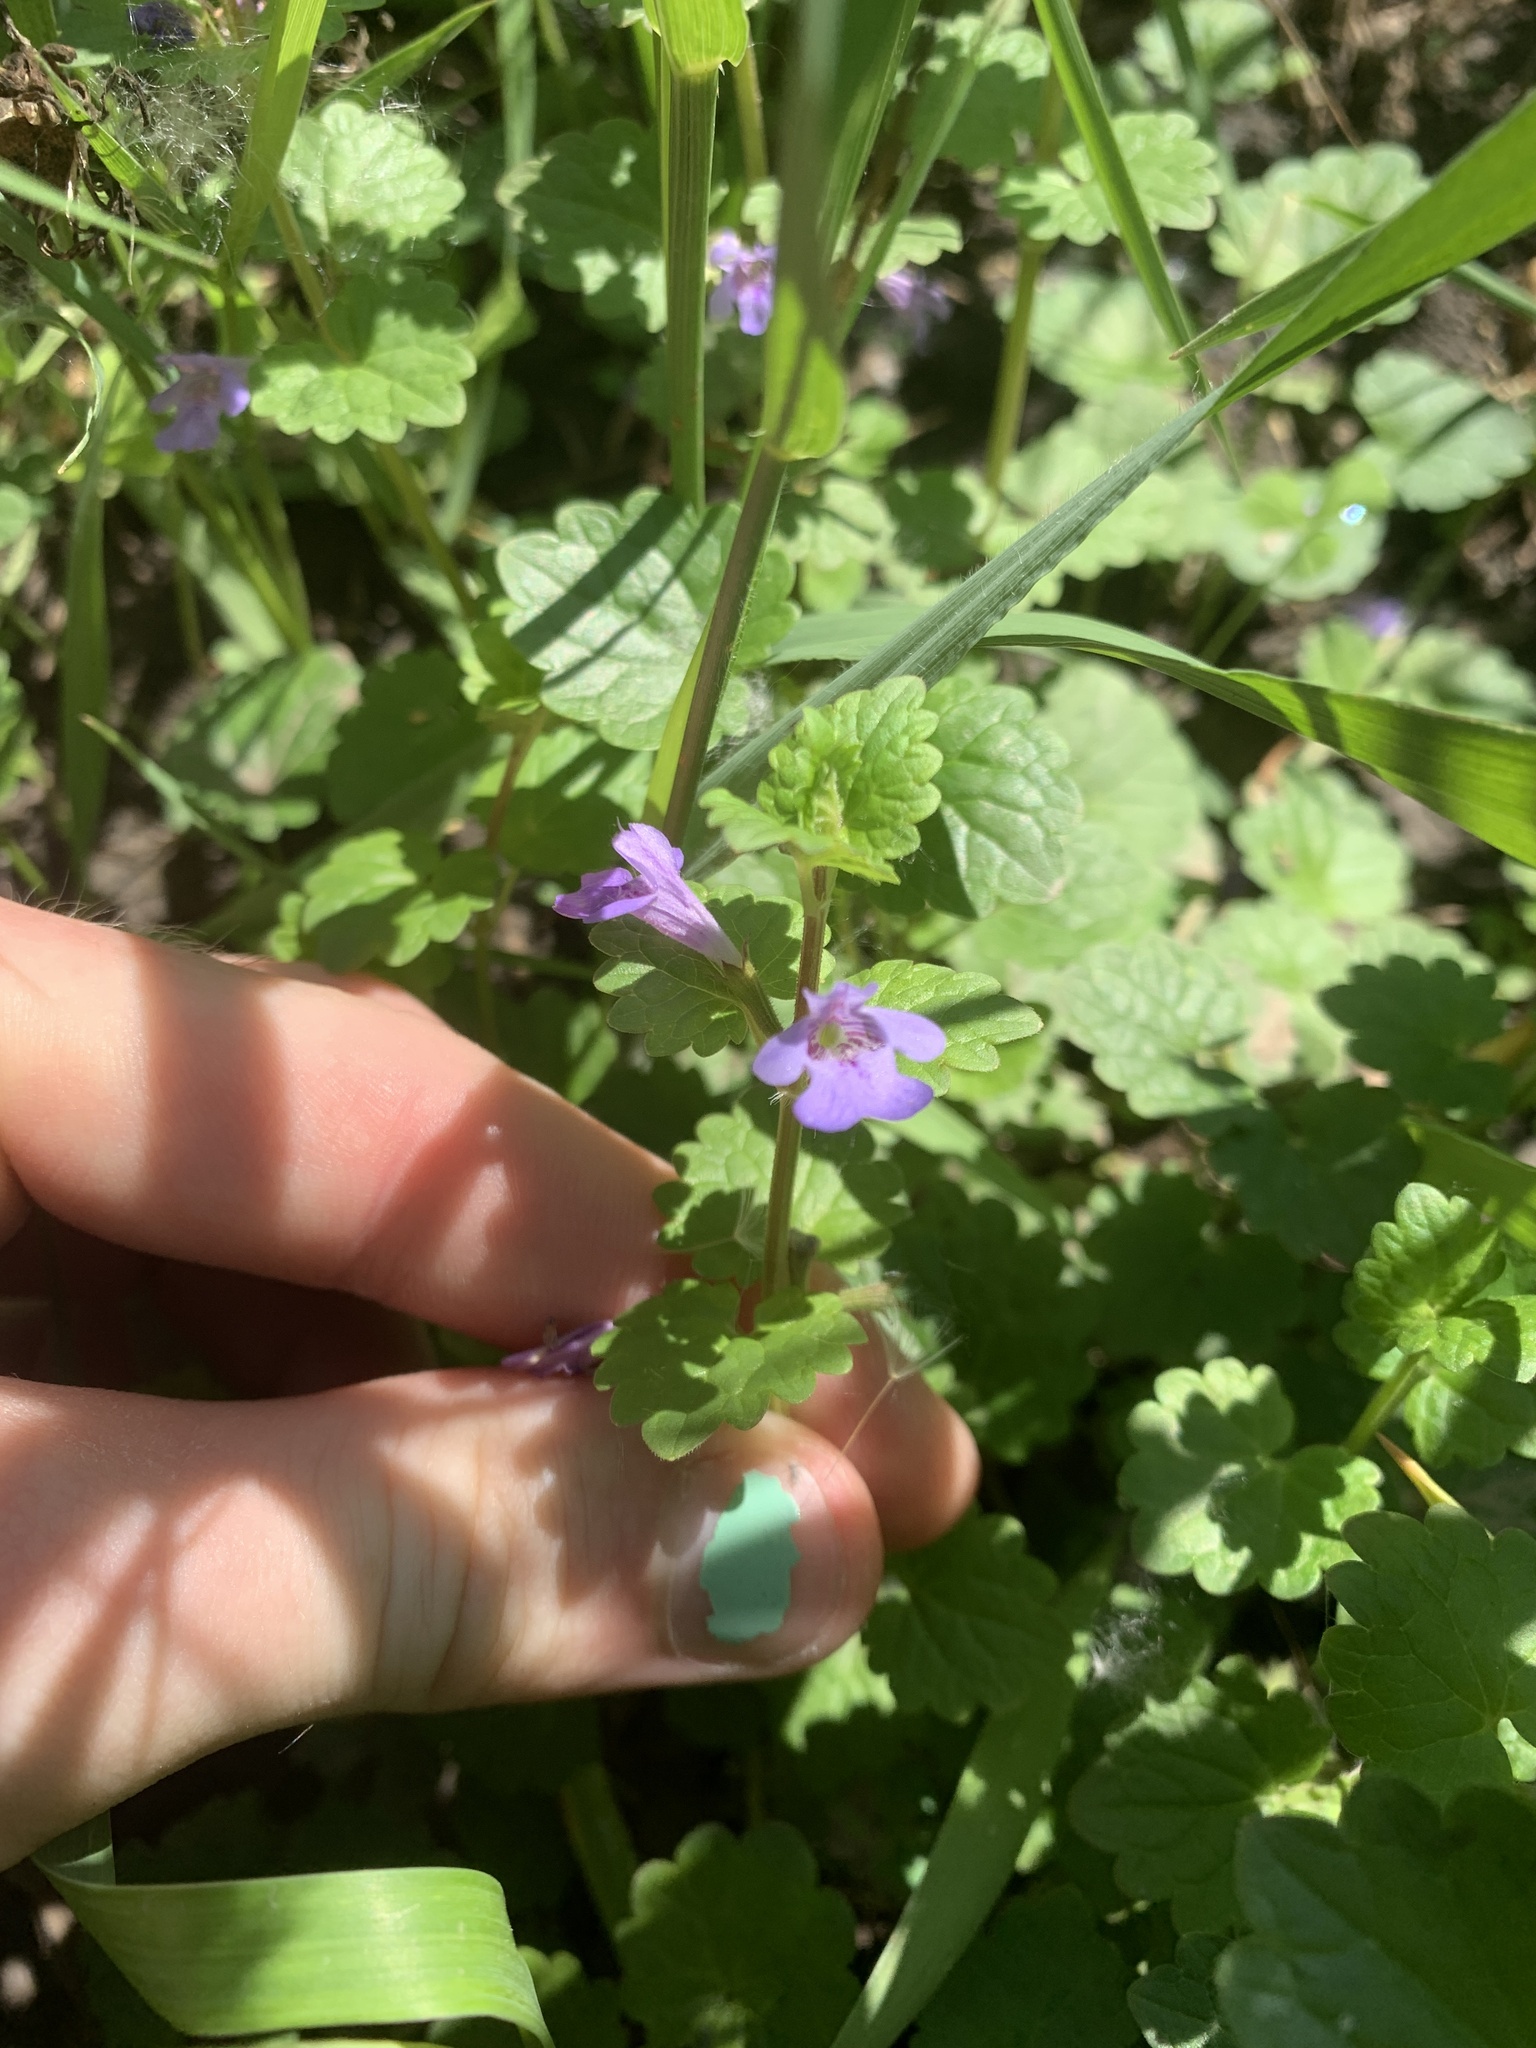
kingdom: Plantae
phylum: Tracheophyta
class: Magnoliopsida
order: Lamiales
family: Lamiaceae
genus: Glechoma
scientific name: Glechoma hederacea
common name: Ground ivy
